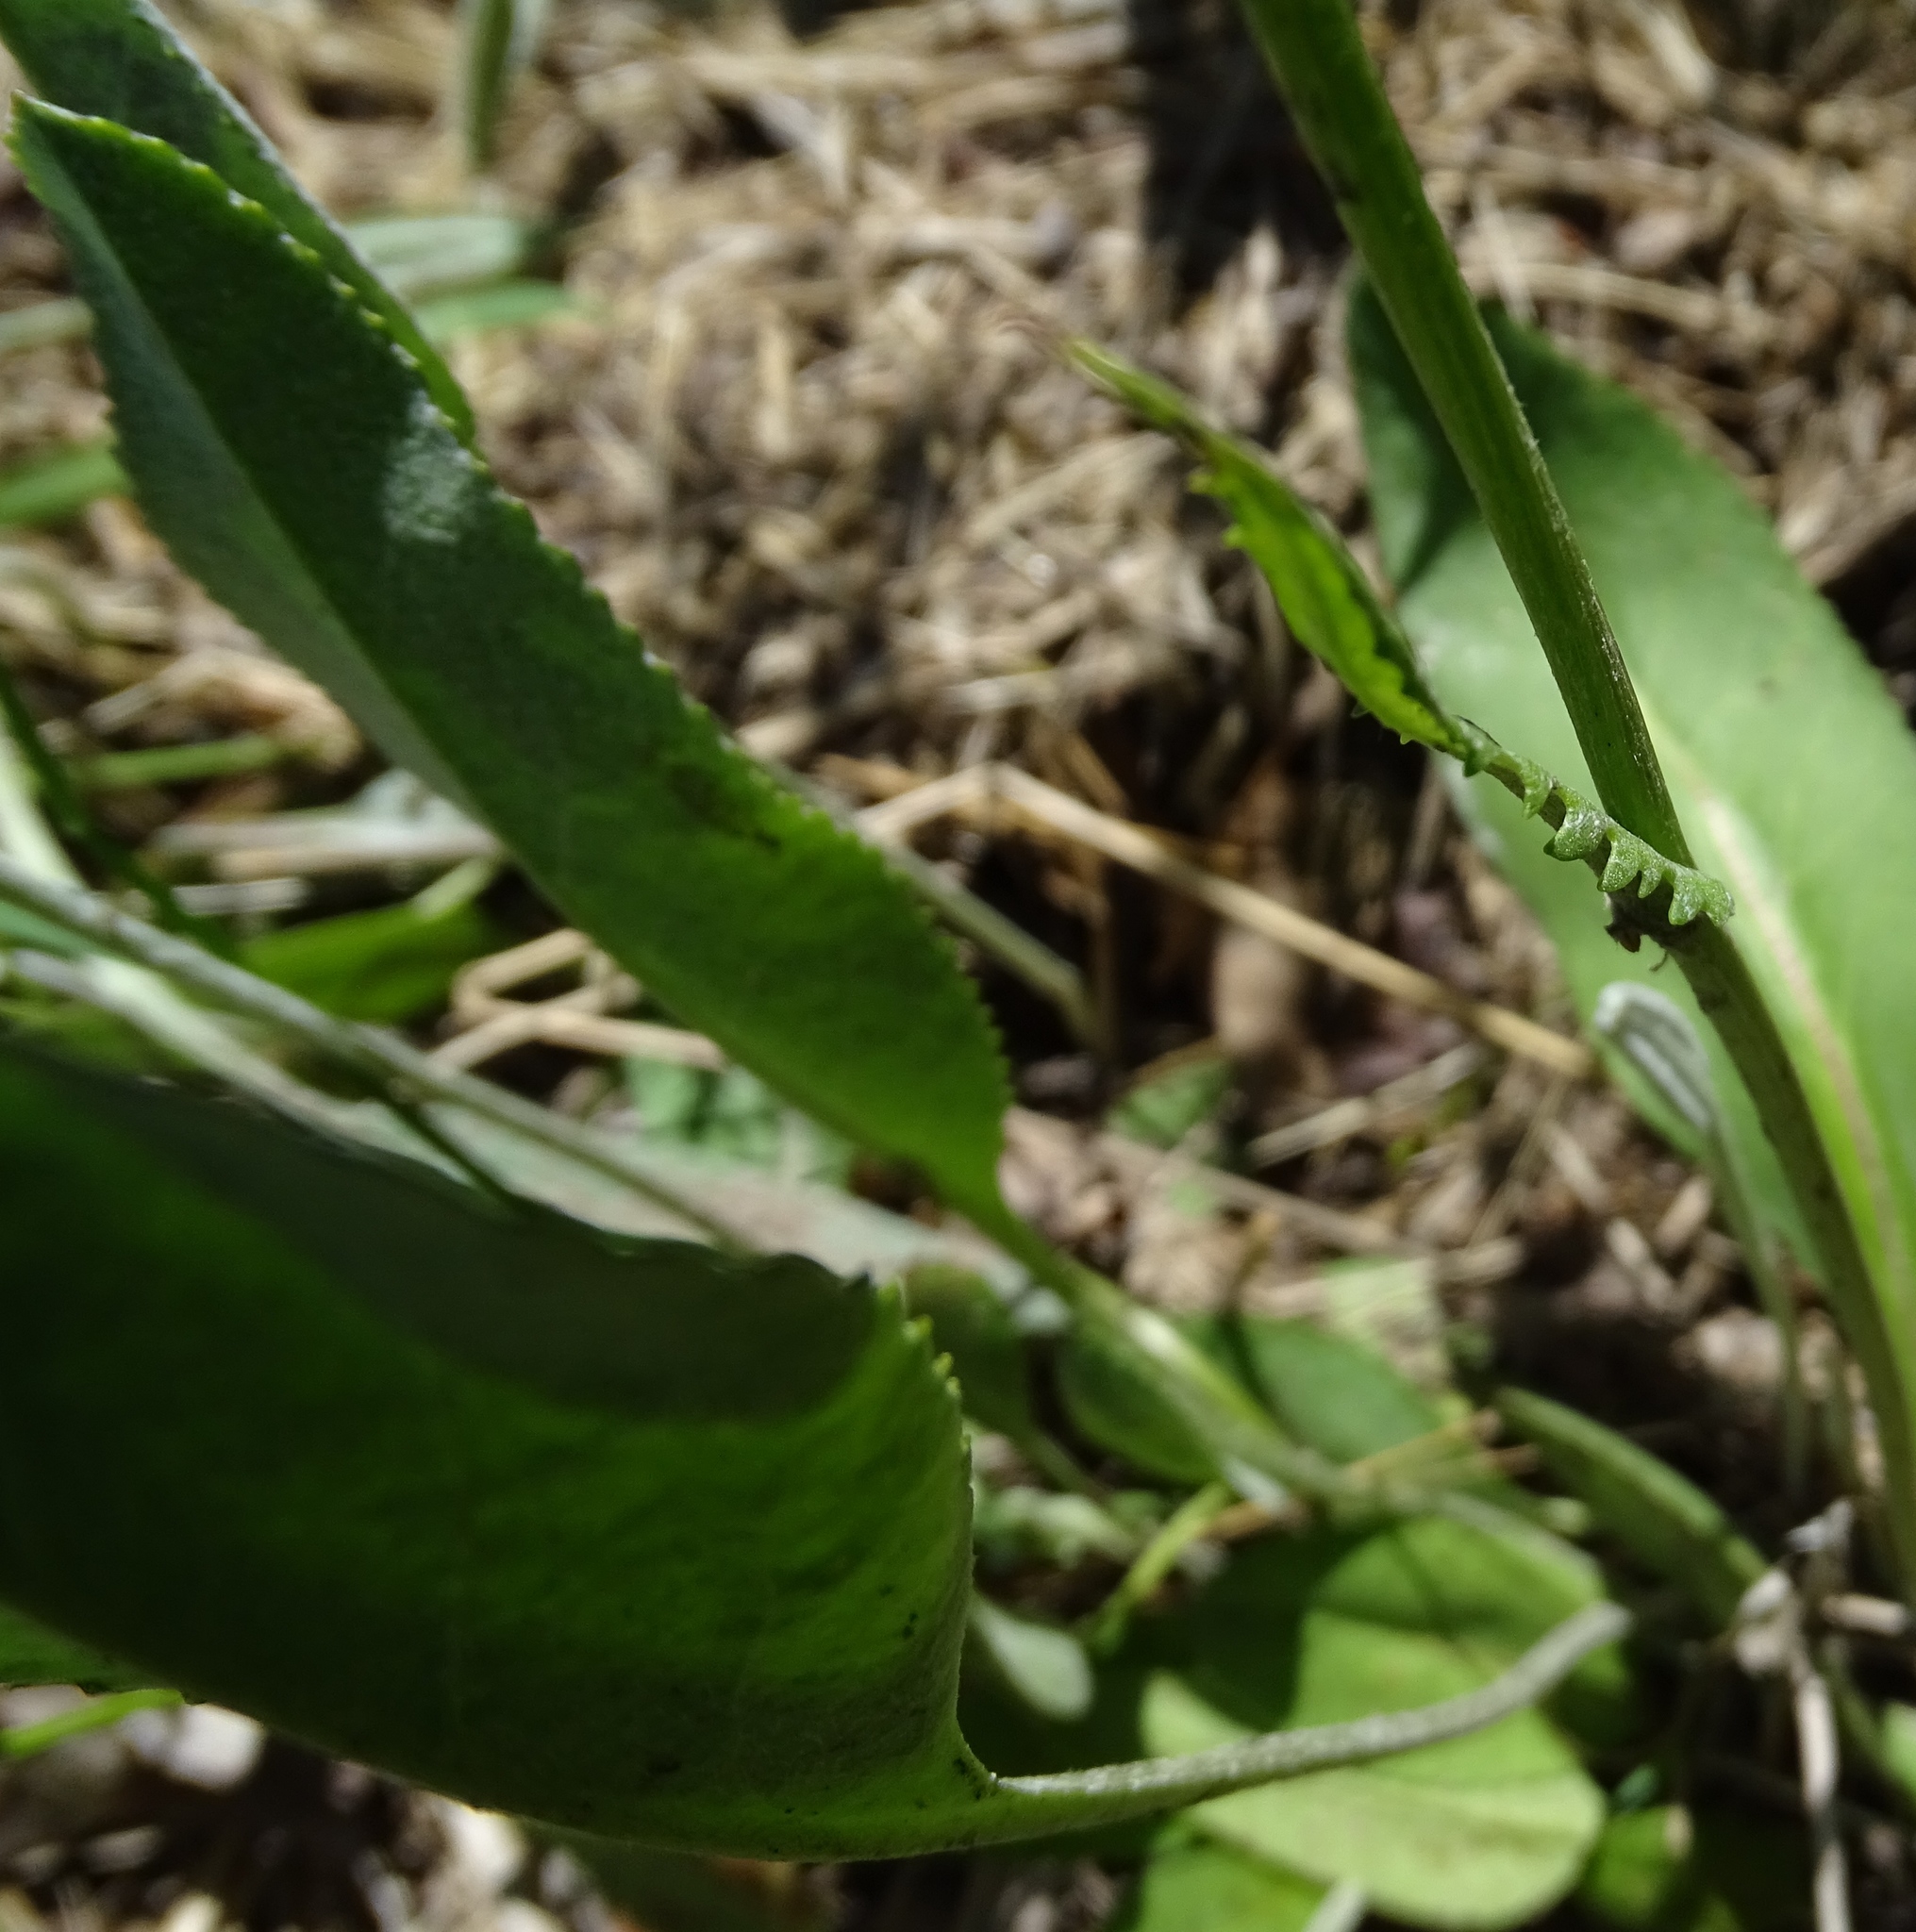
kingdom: Plantae
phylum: Tracheophyta
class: Magnoliopsida
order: Asterales
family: Asteraceae
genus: Packera
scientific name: Packera dubia
